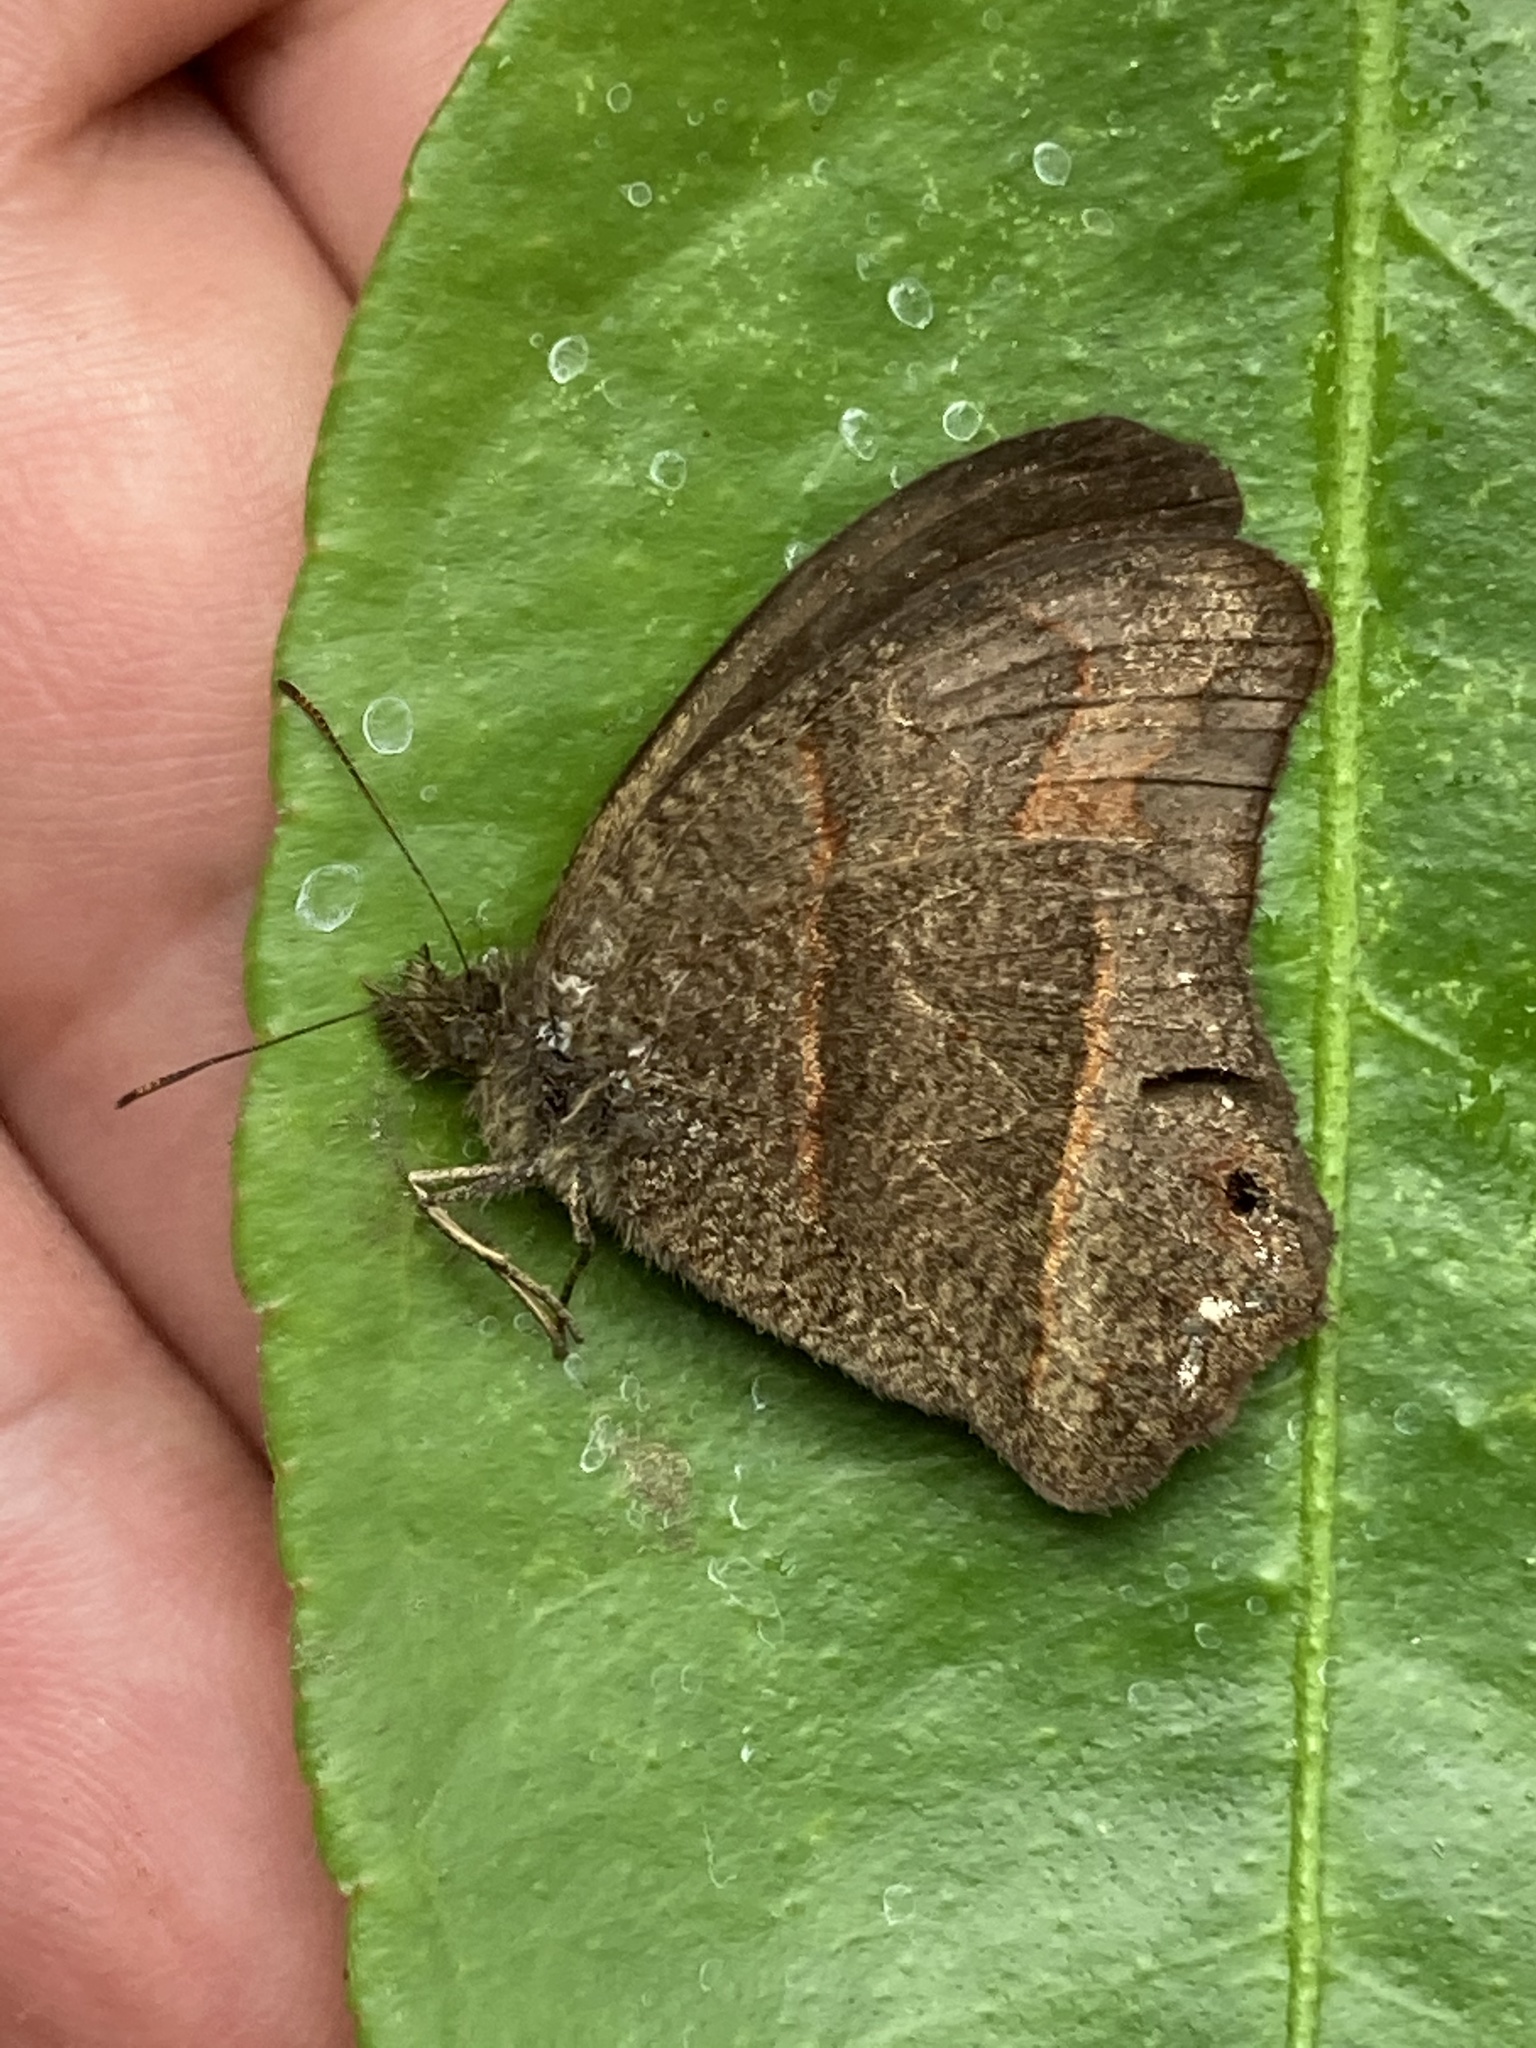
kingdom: Animalia
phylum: Arthropoda
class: Insecta
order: Lepidoptera
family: Nymphalidae
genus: Euptychia
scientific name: Euptychia Cyllopsis hedemanni
